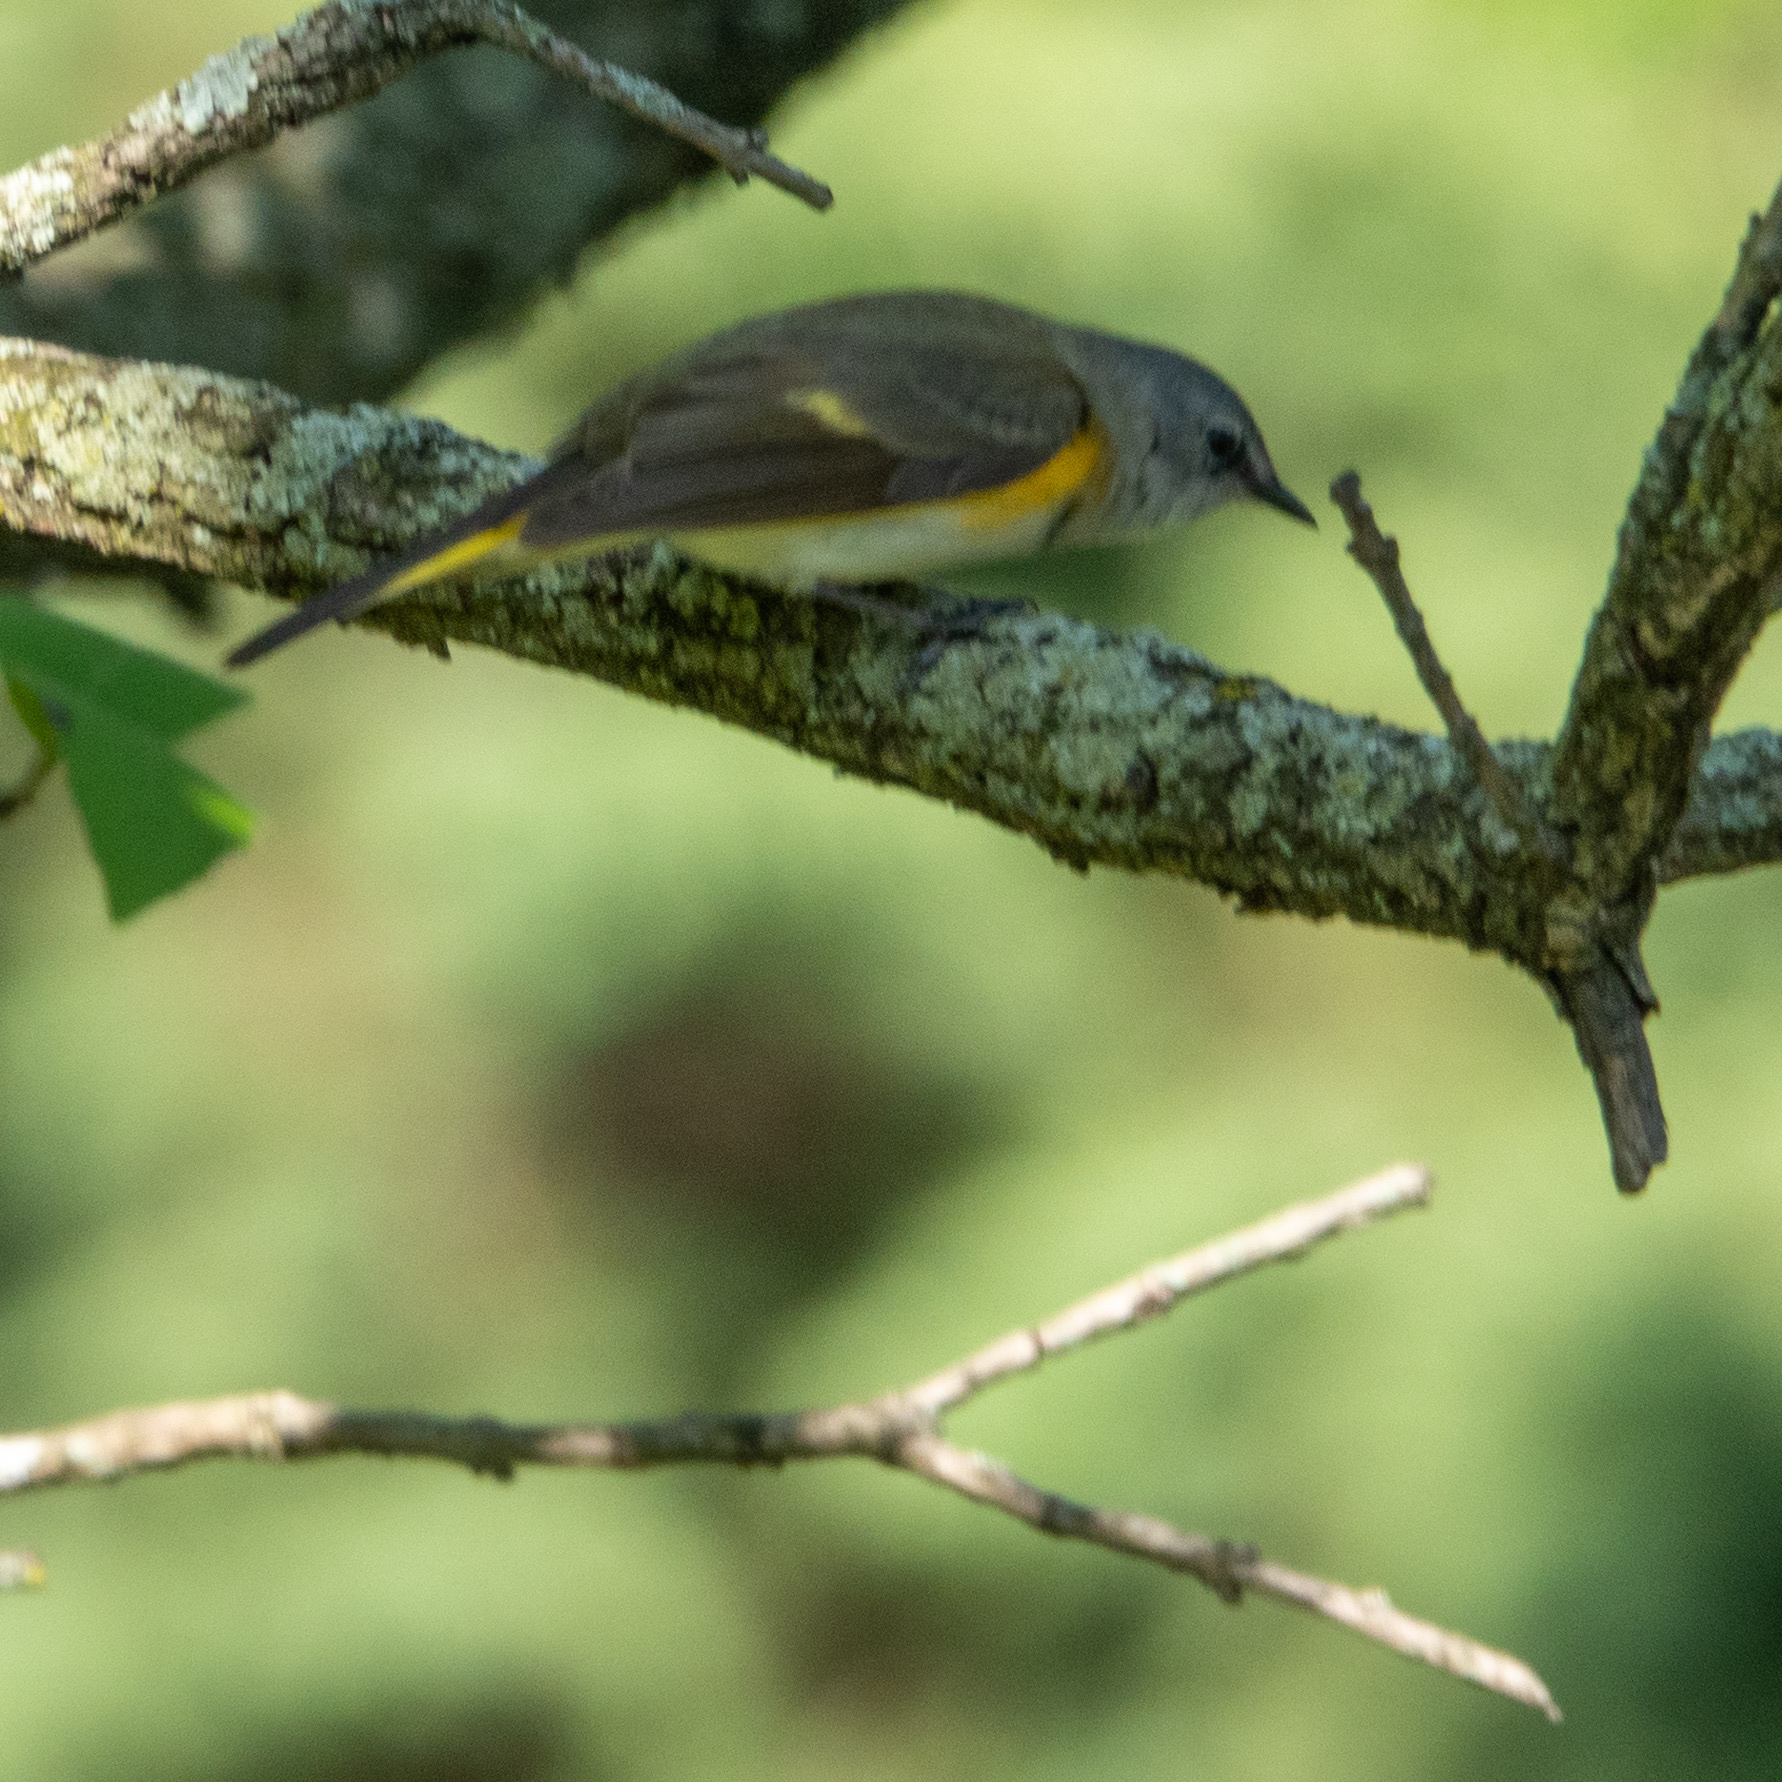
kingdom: Animalia
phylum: Chordata
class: Aves
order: Passeriformes
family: Parulidae
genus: Setophaga
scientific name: Setophaga ruticilla
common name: American redstart
